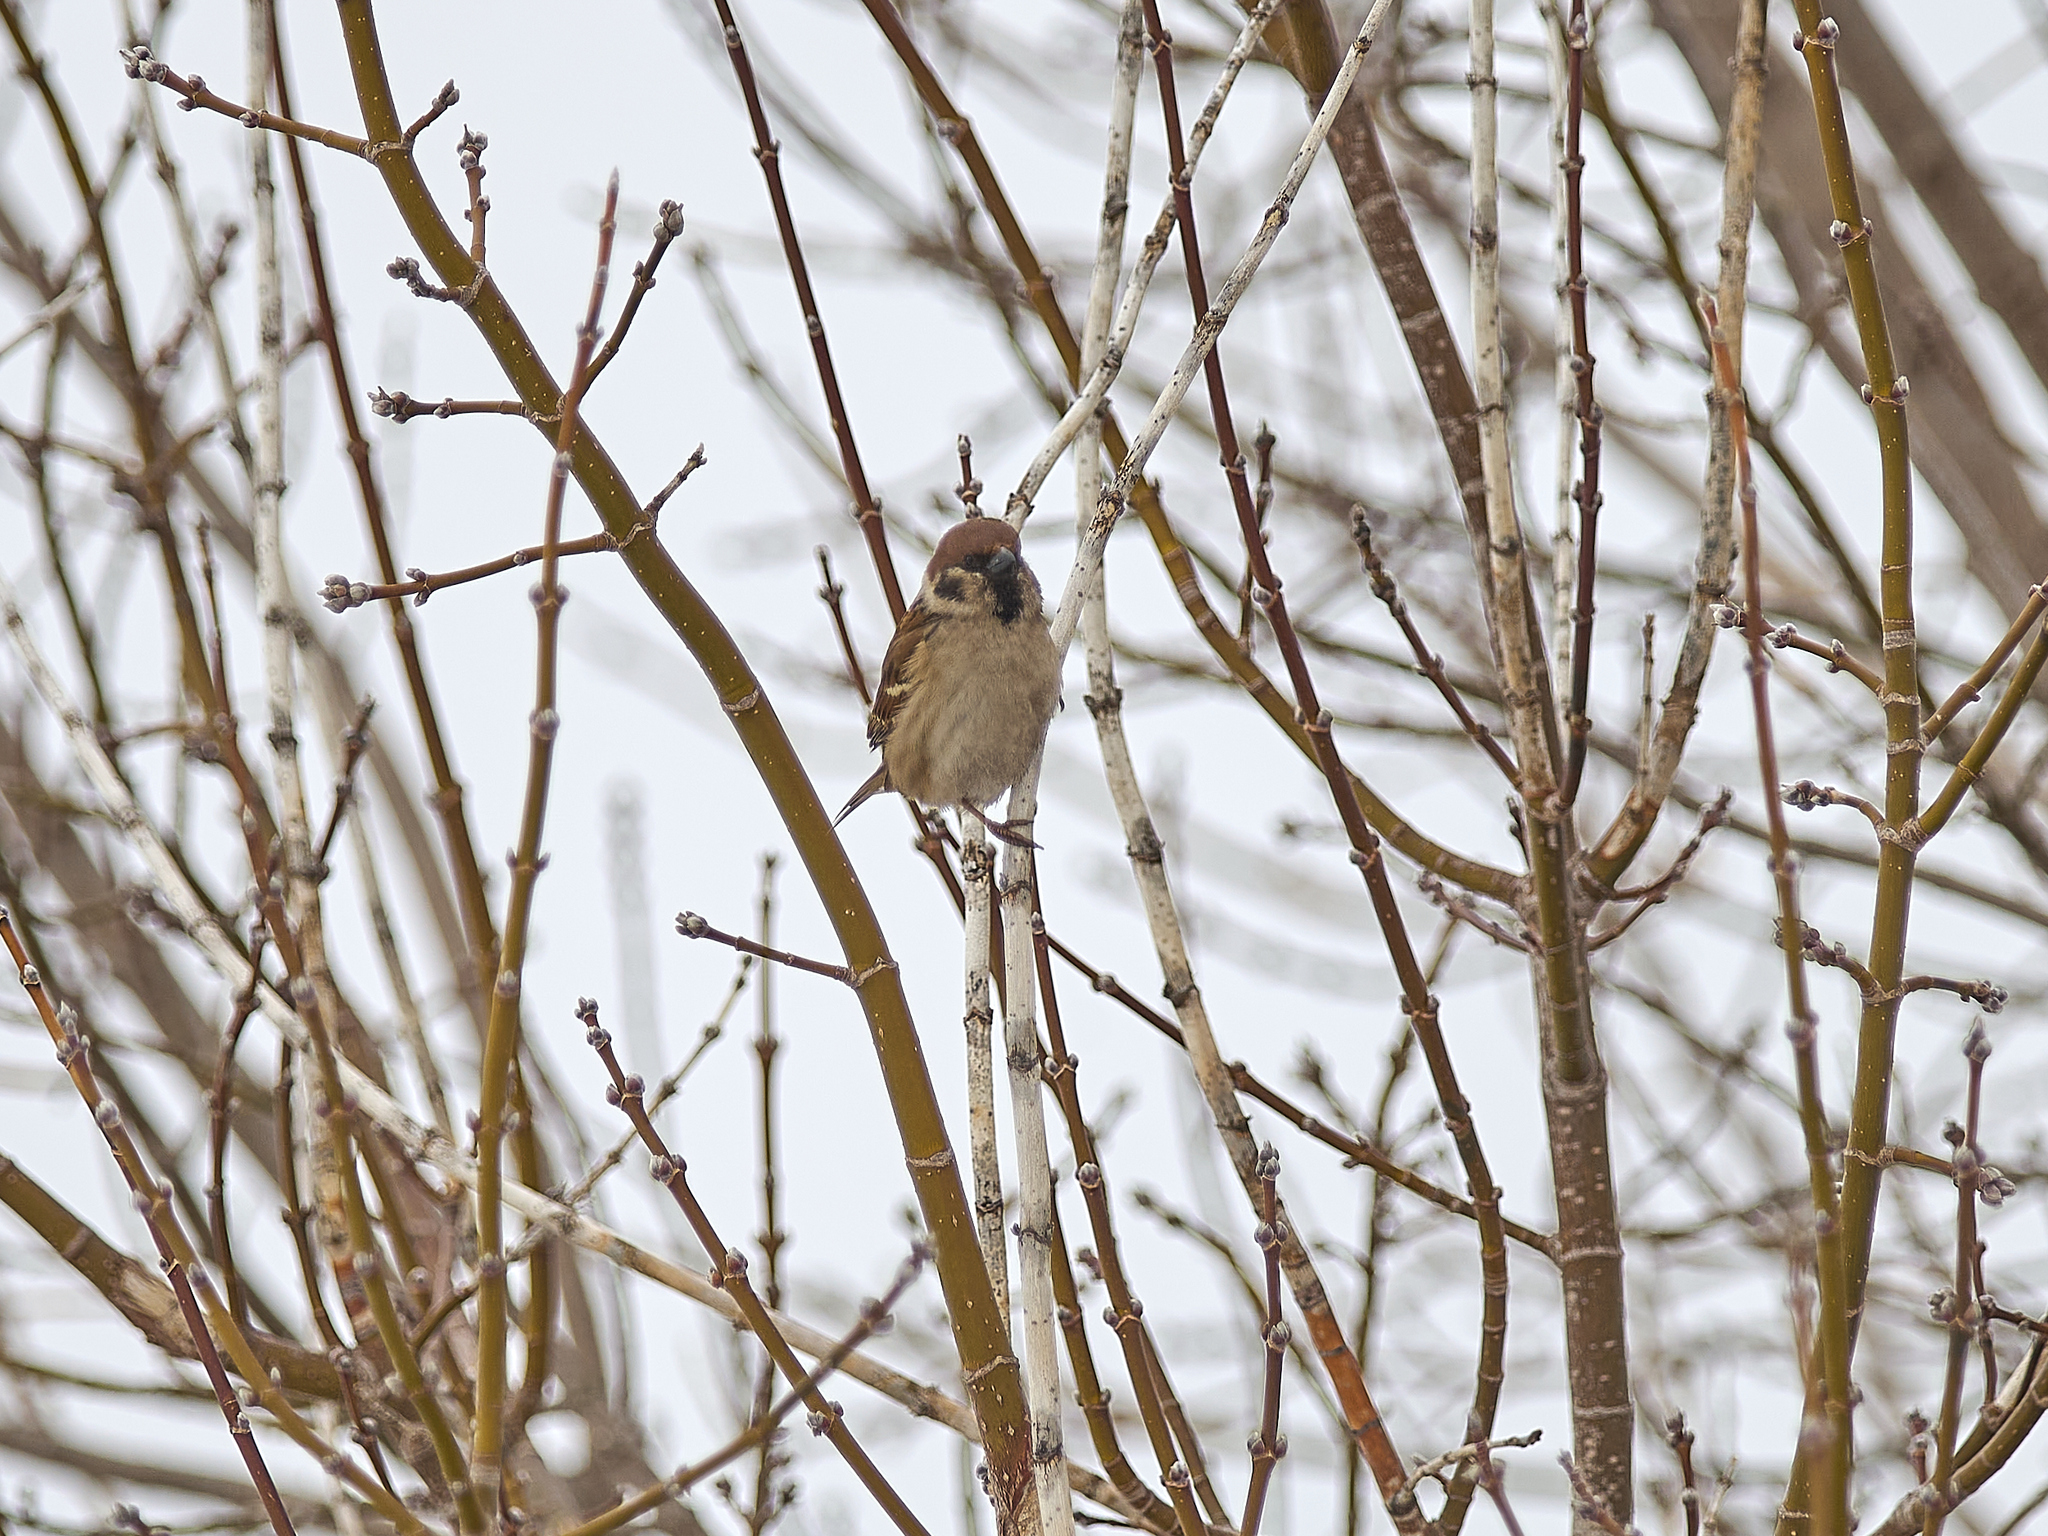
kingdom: Animalia
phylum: Chordata
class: Aves
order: Passeriformes
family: Passeridae
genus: Passer
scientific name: Passer montanus
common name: Eurasian tree sparrow
